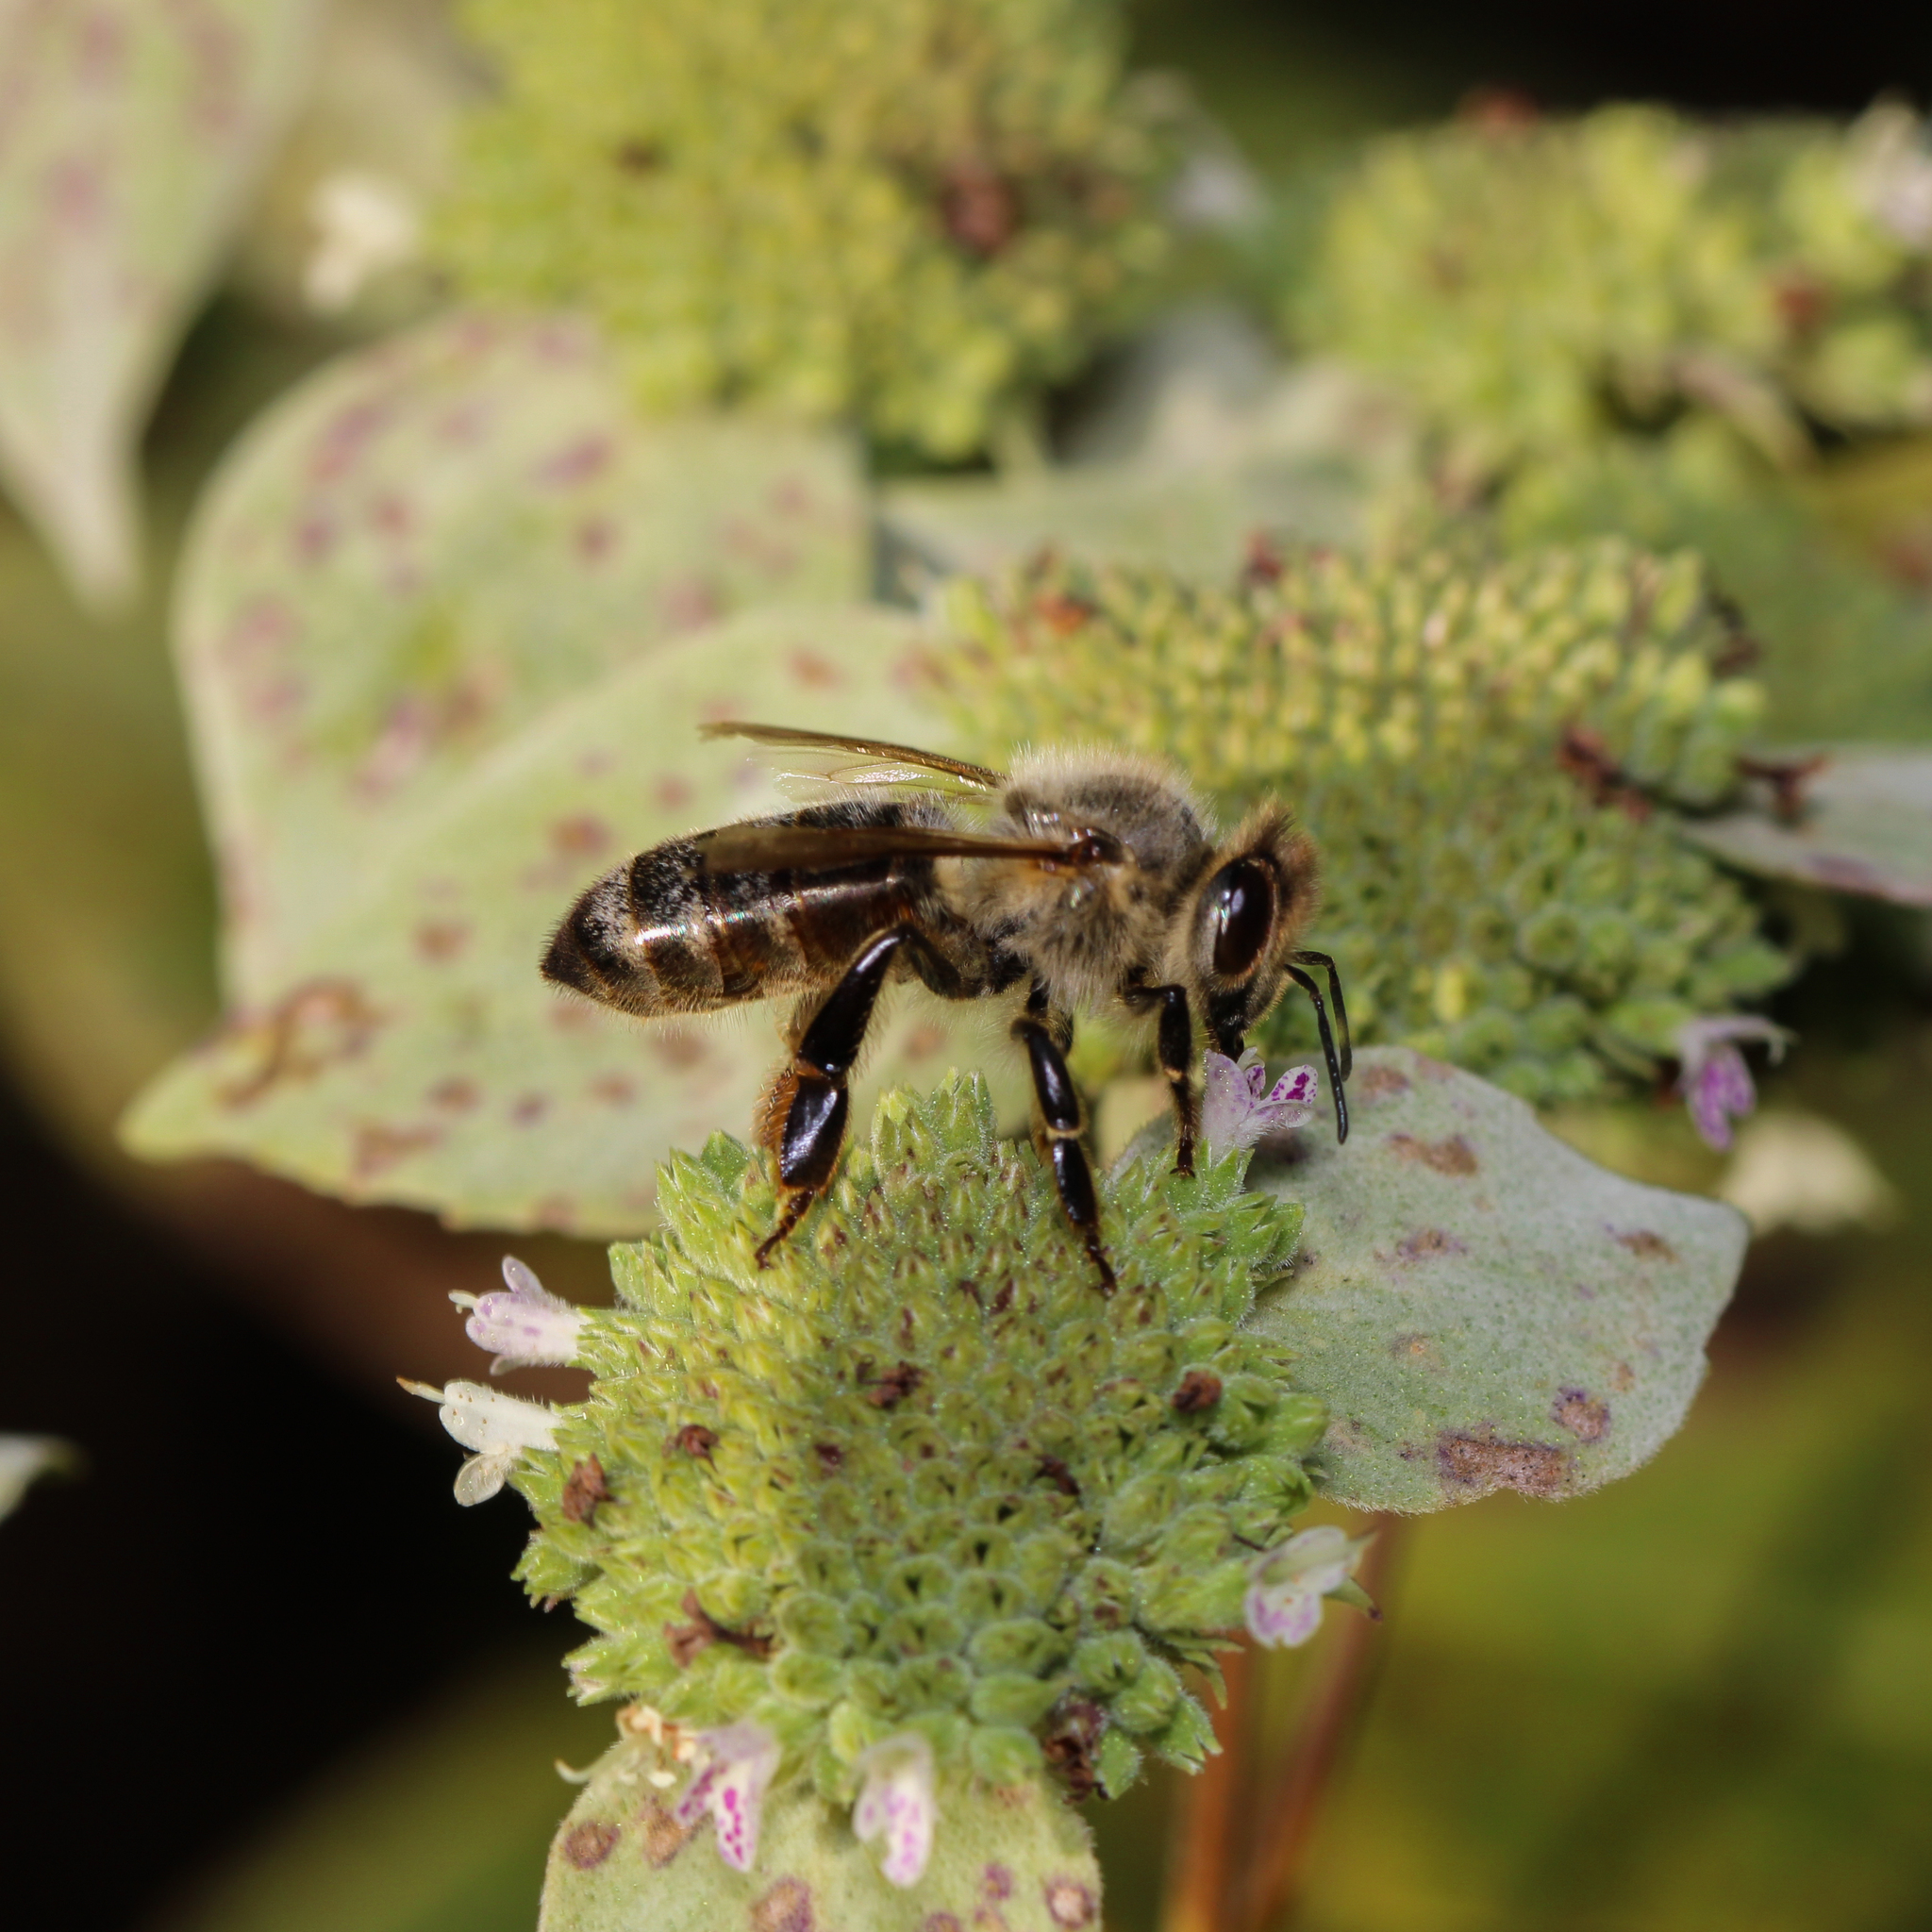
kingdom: Animalia
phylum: Arthropoda
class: Insecta
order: Hymenoptera
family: Apidae
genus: Apis
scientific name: Apis mellifera
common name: Honey bee
